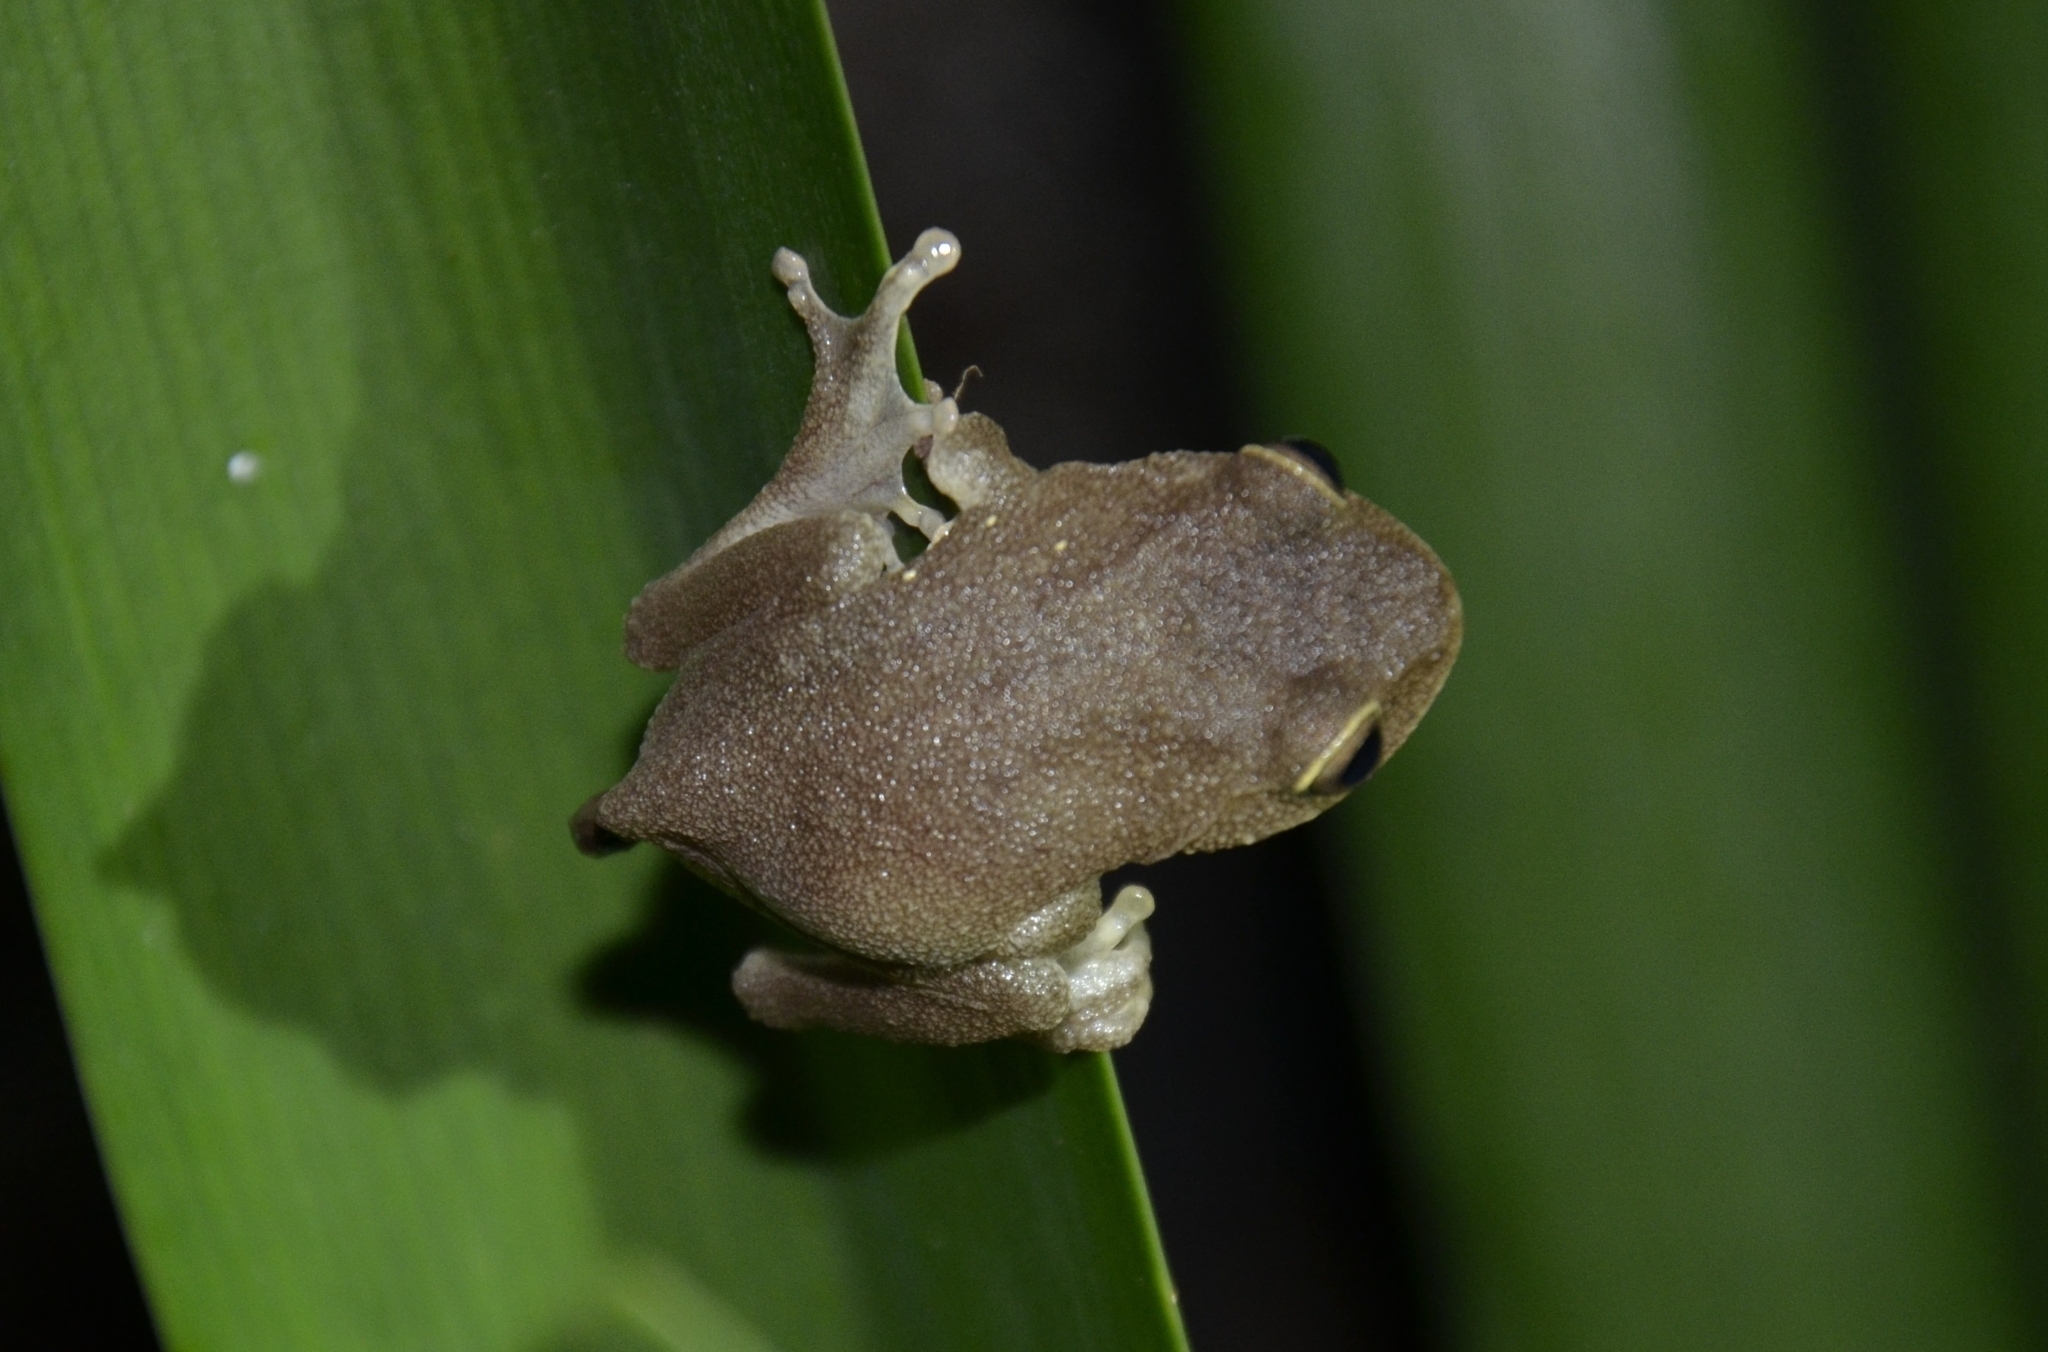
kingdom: Animalia
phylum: Chordata
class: Amphibia
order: Anura
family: Rhacophoridae
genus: Raorchestes
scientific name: Raorchestes ponmudi
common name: Large ponmudi bush frog
